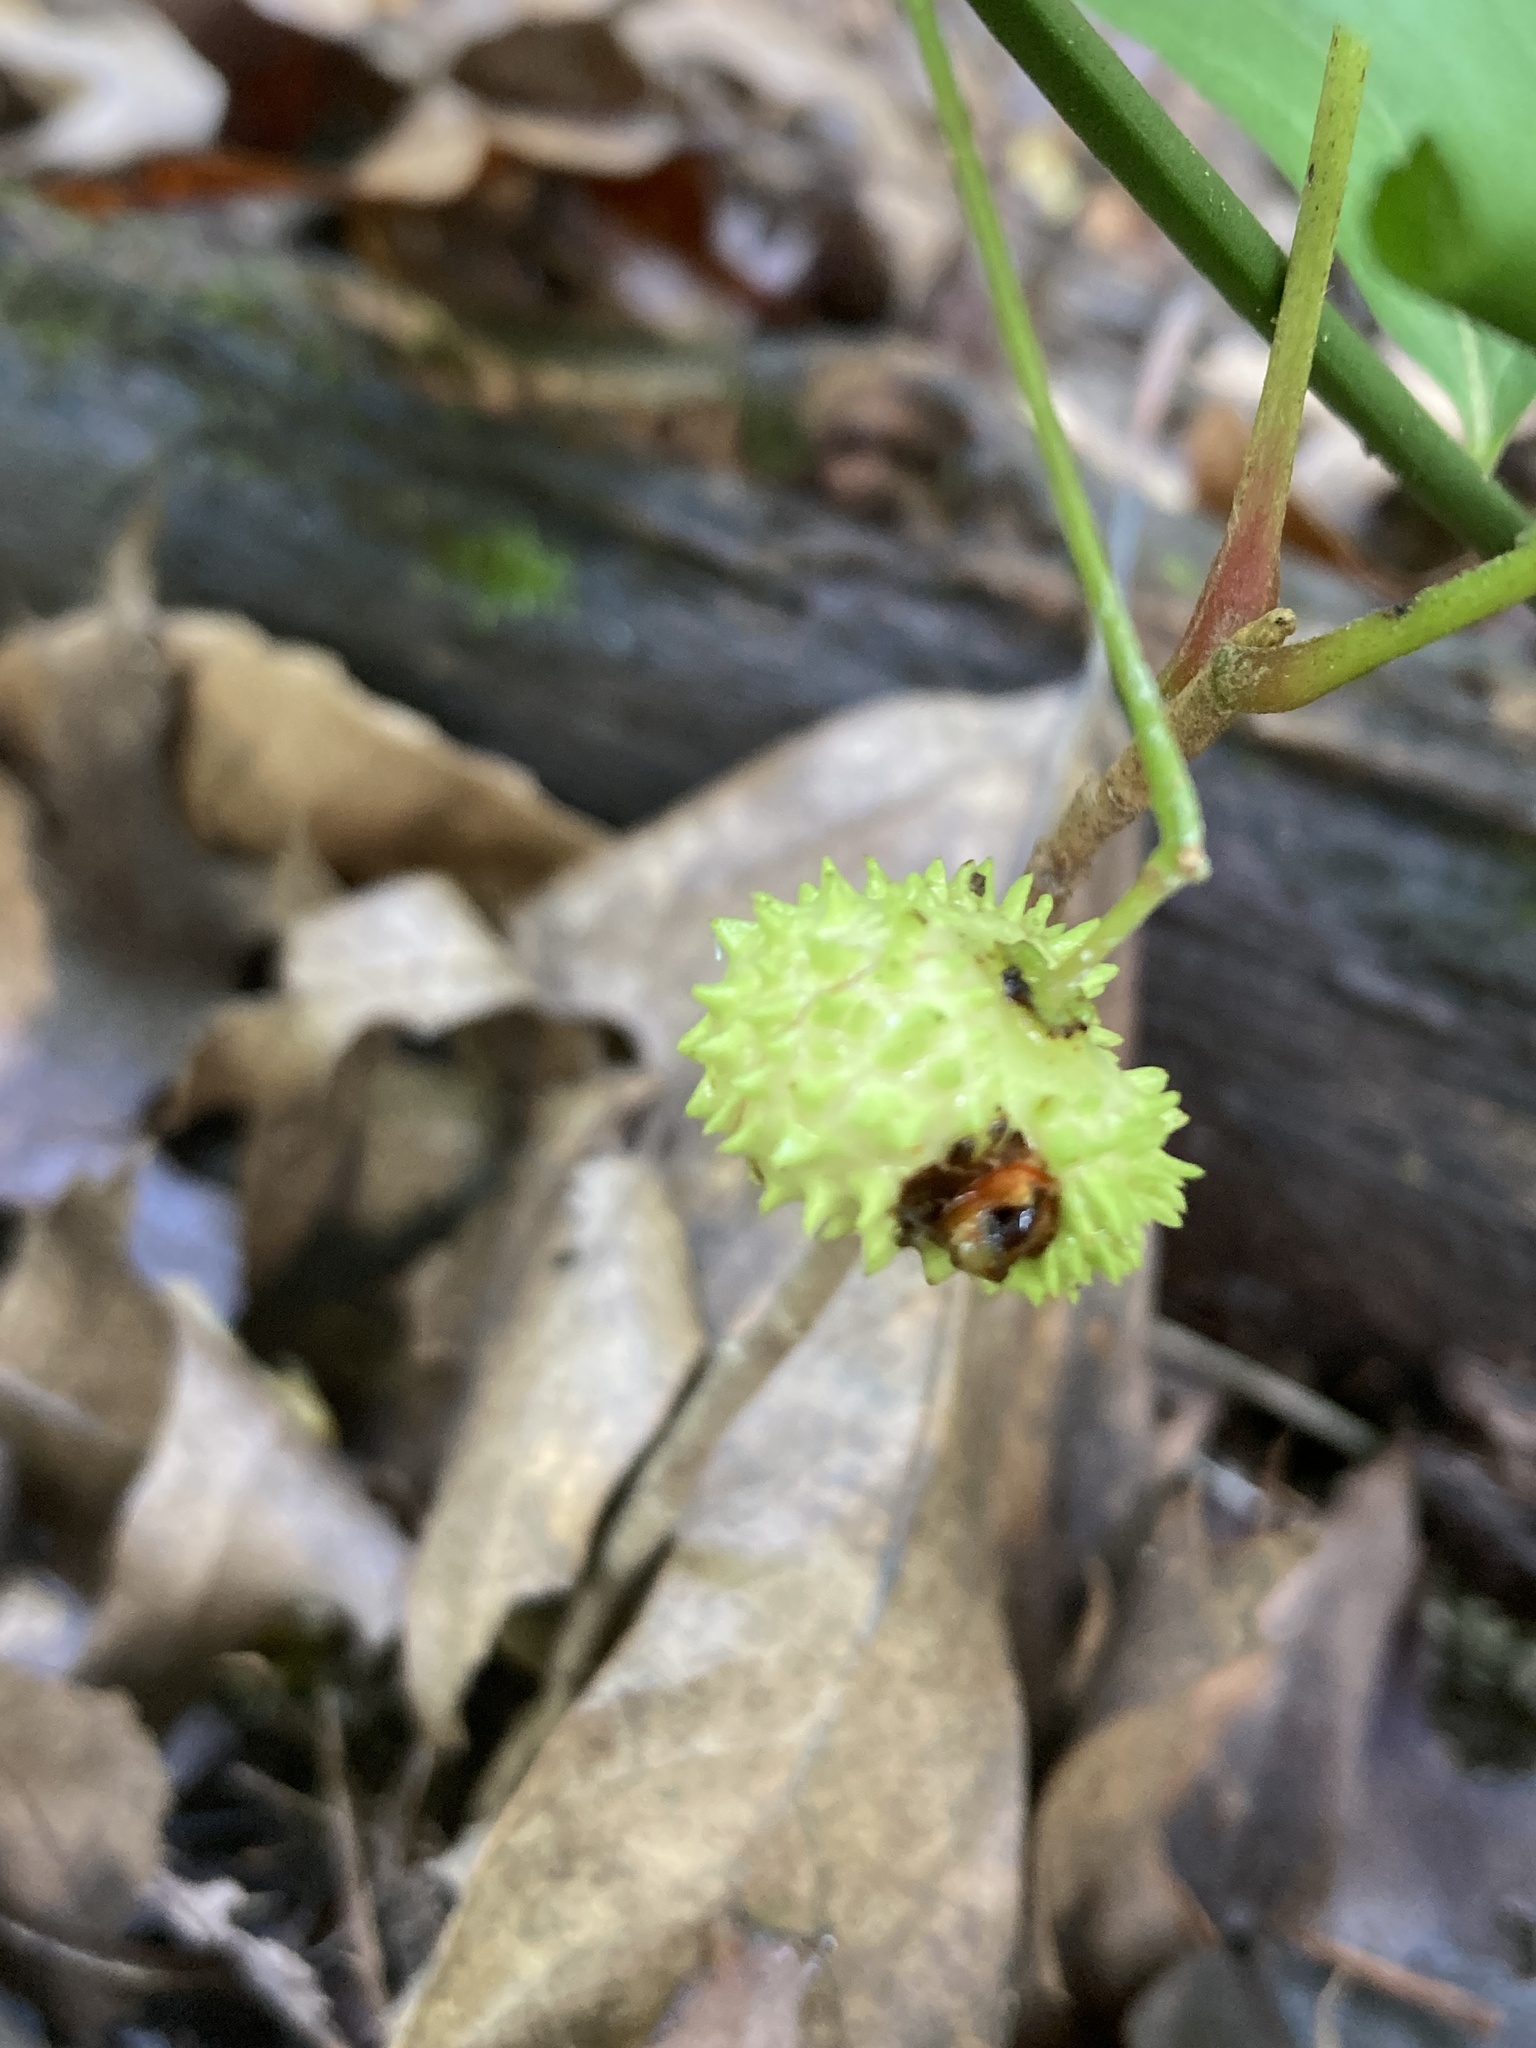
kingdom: Plantae
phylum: Tracheophyta
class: Magnoliopsida
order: Celastrales
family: Celastraceae
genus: Euonymus
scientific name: Euonymus obovatus
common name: Running strawberry-bush
